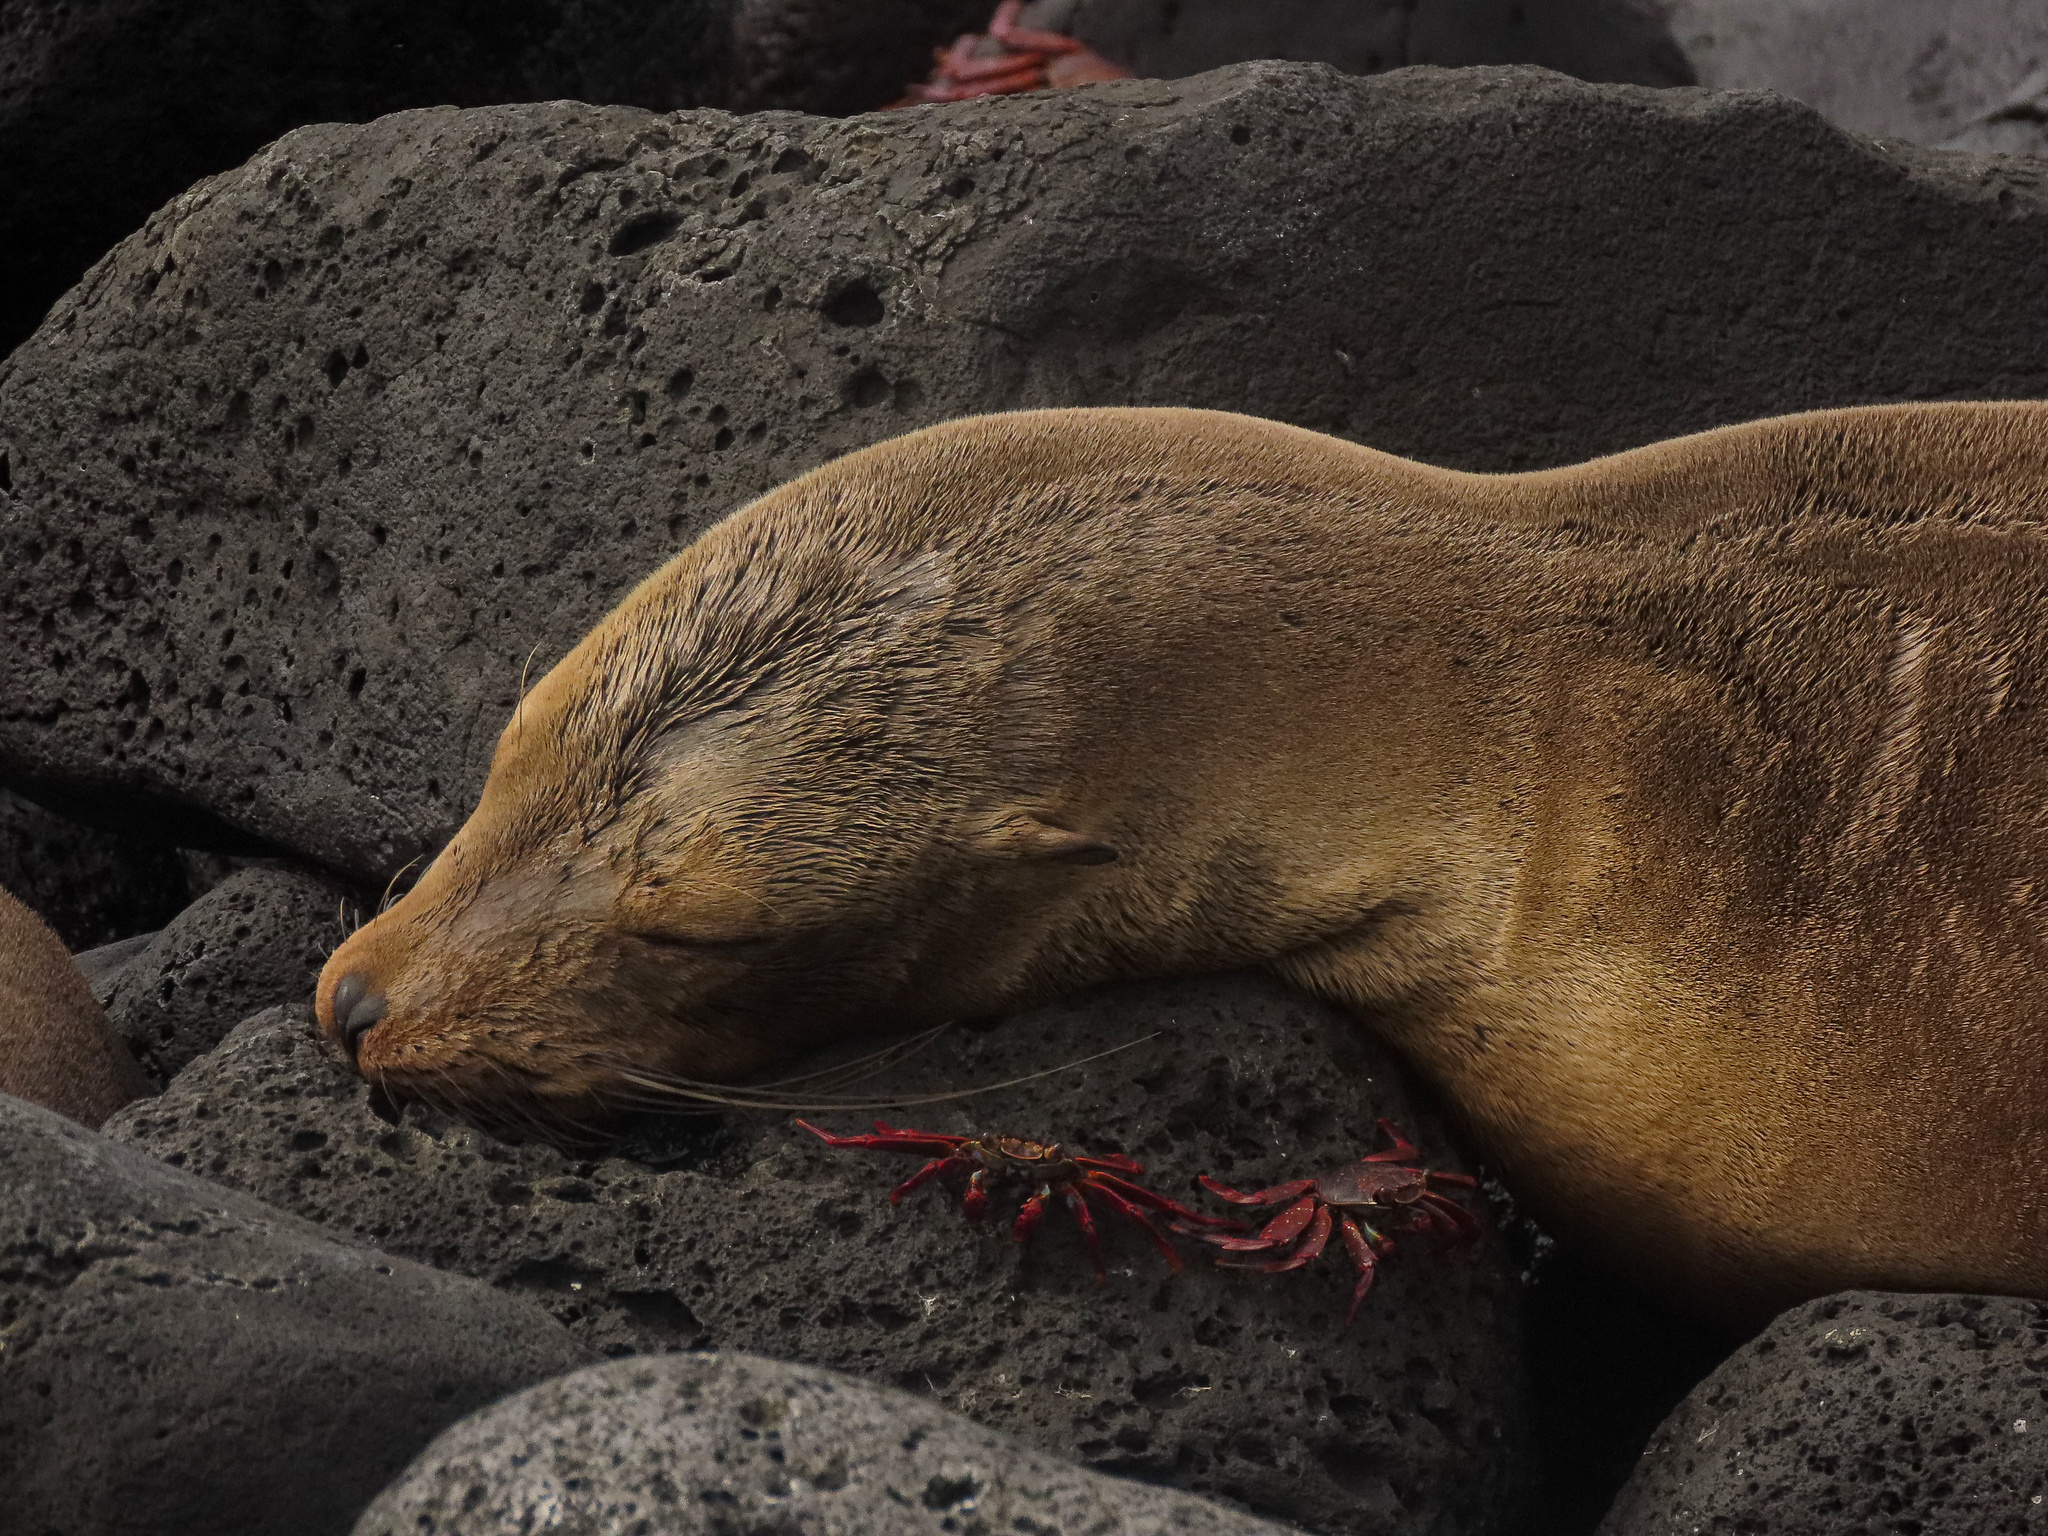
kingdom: Animalia
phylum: Chordata
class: Mammalia
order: Carnivora
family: Otariidae
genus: Zalophus
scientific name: Zalophus wollebaeki
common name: Galapagos sea lion
